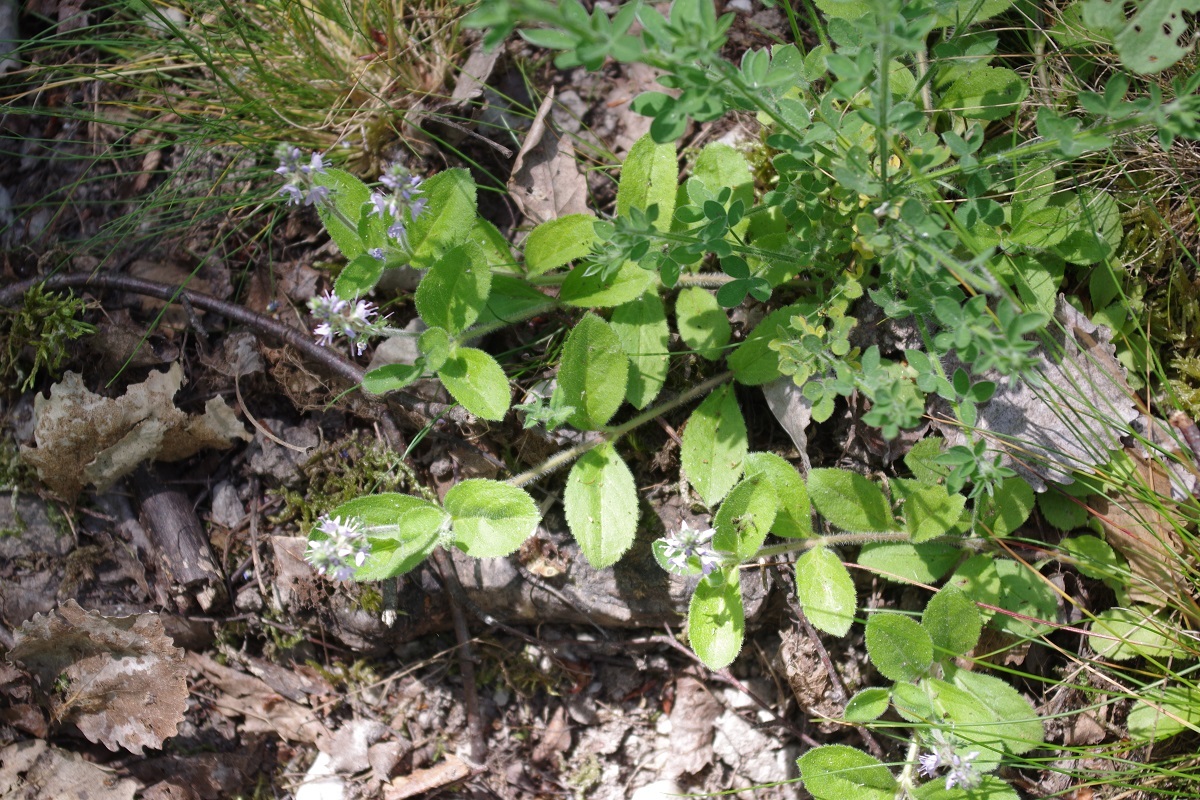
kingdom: Plantae
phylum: Tracheophyta
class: Magnoliopsida
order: Lamiales
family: Plantaginaceae
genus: Veronica
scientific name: Veronica officinalis
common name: Common speedwell
